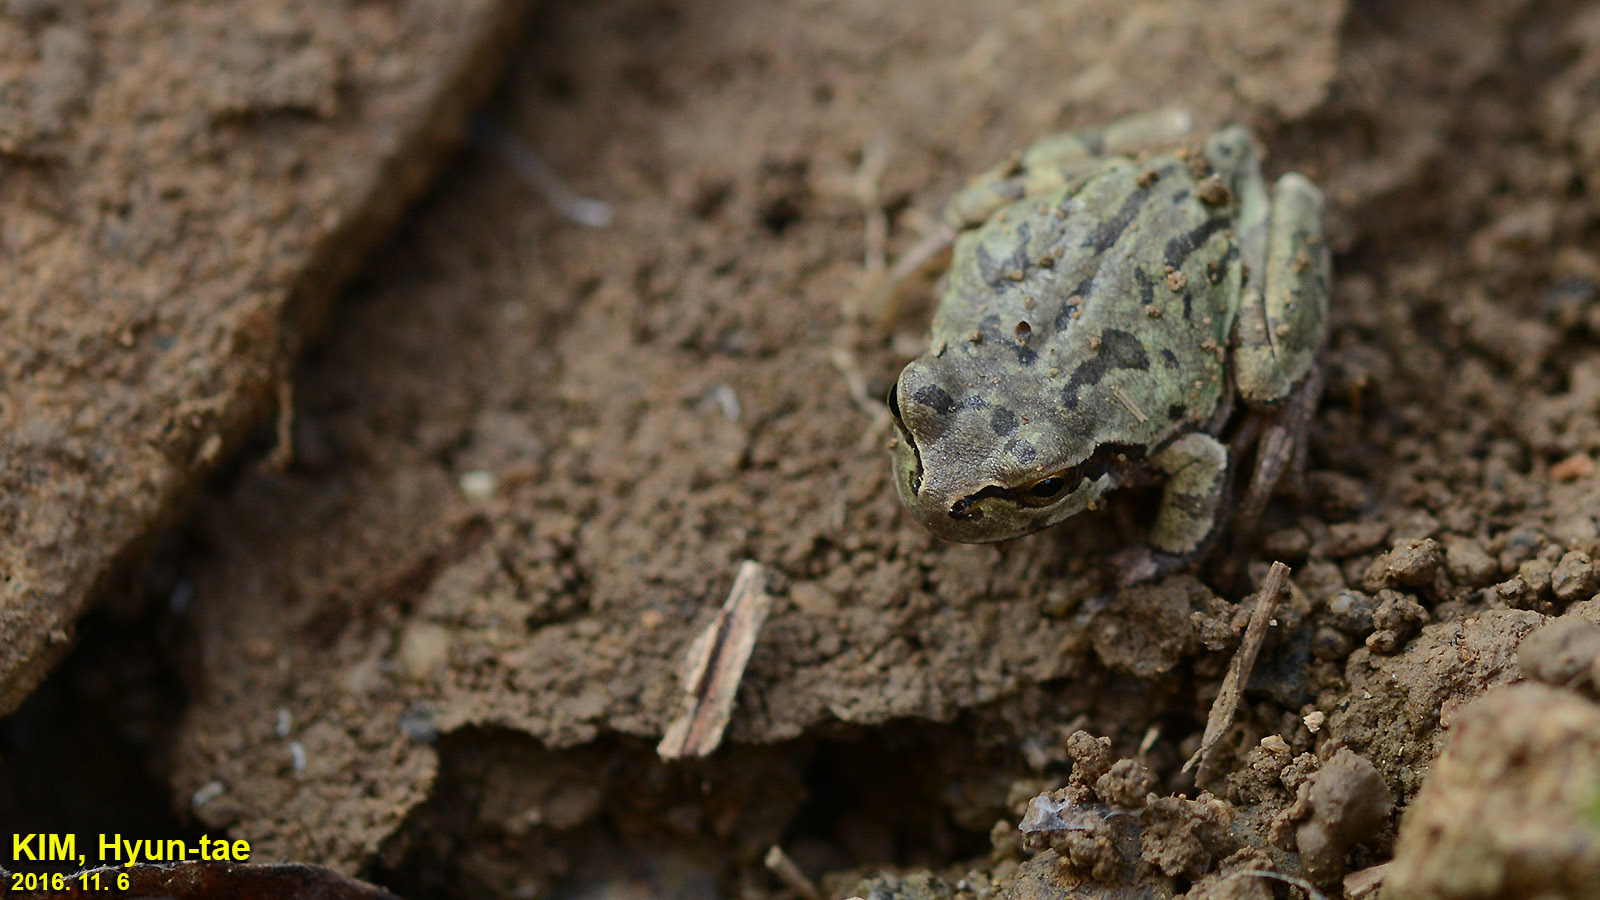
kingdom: Animalia
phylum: Chordata
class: Amphibia
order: Anura
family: Hylidae
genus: Dryophytes
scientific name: Dryophytes japonicus
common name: Japanese treefrog
